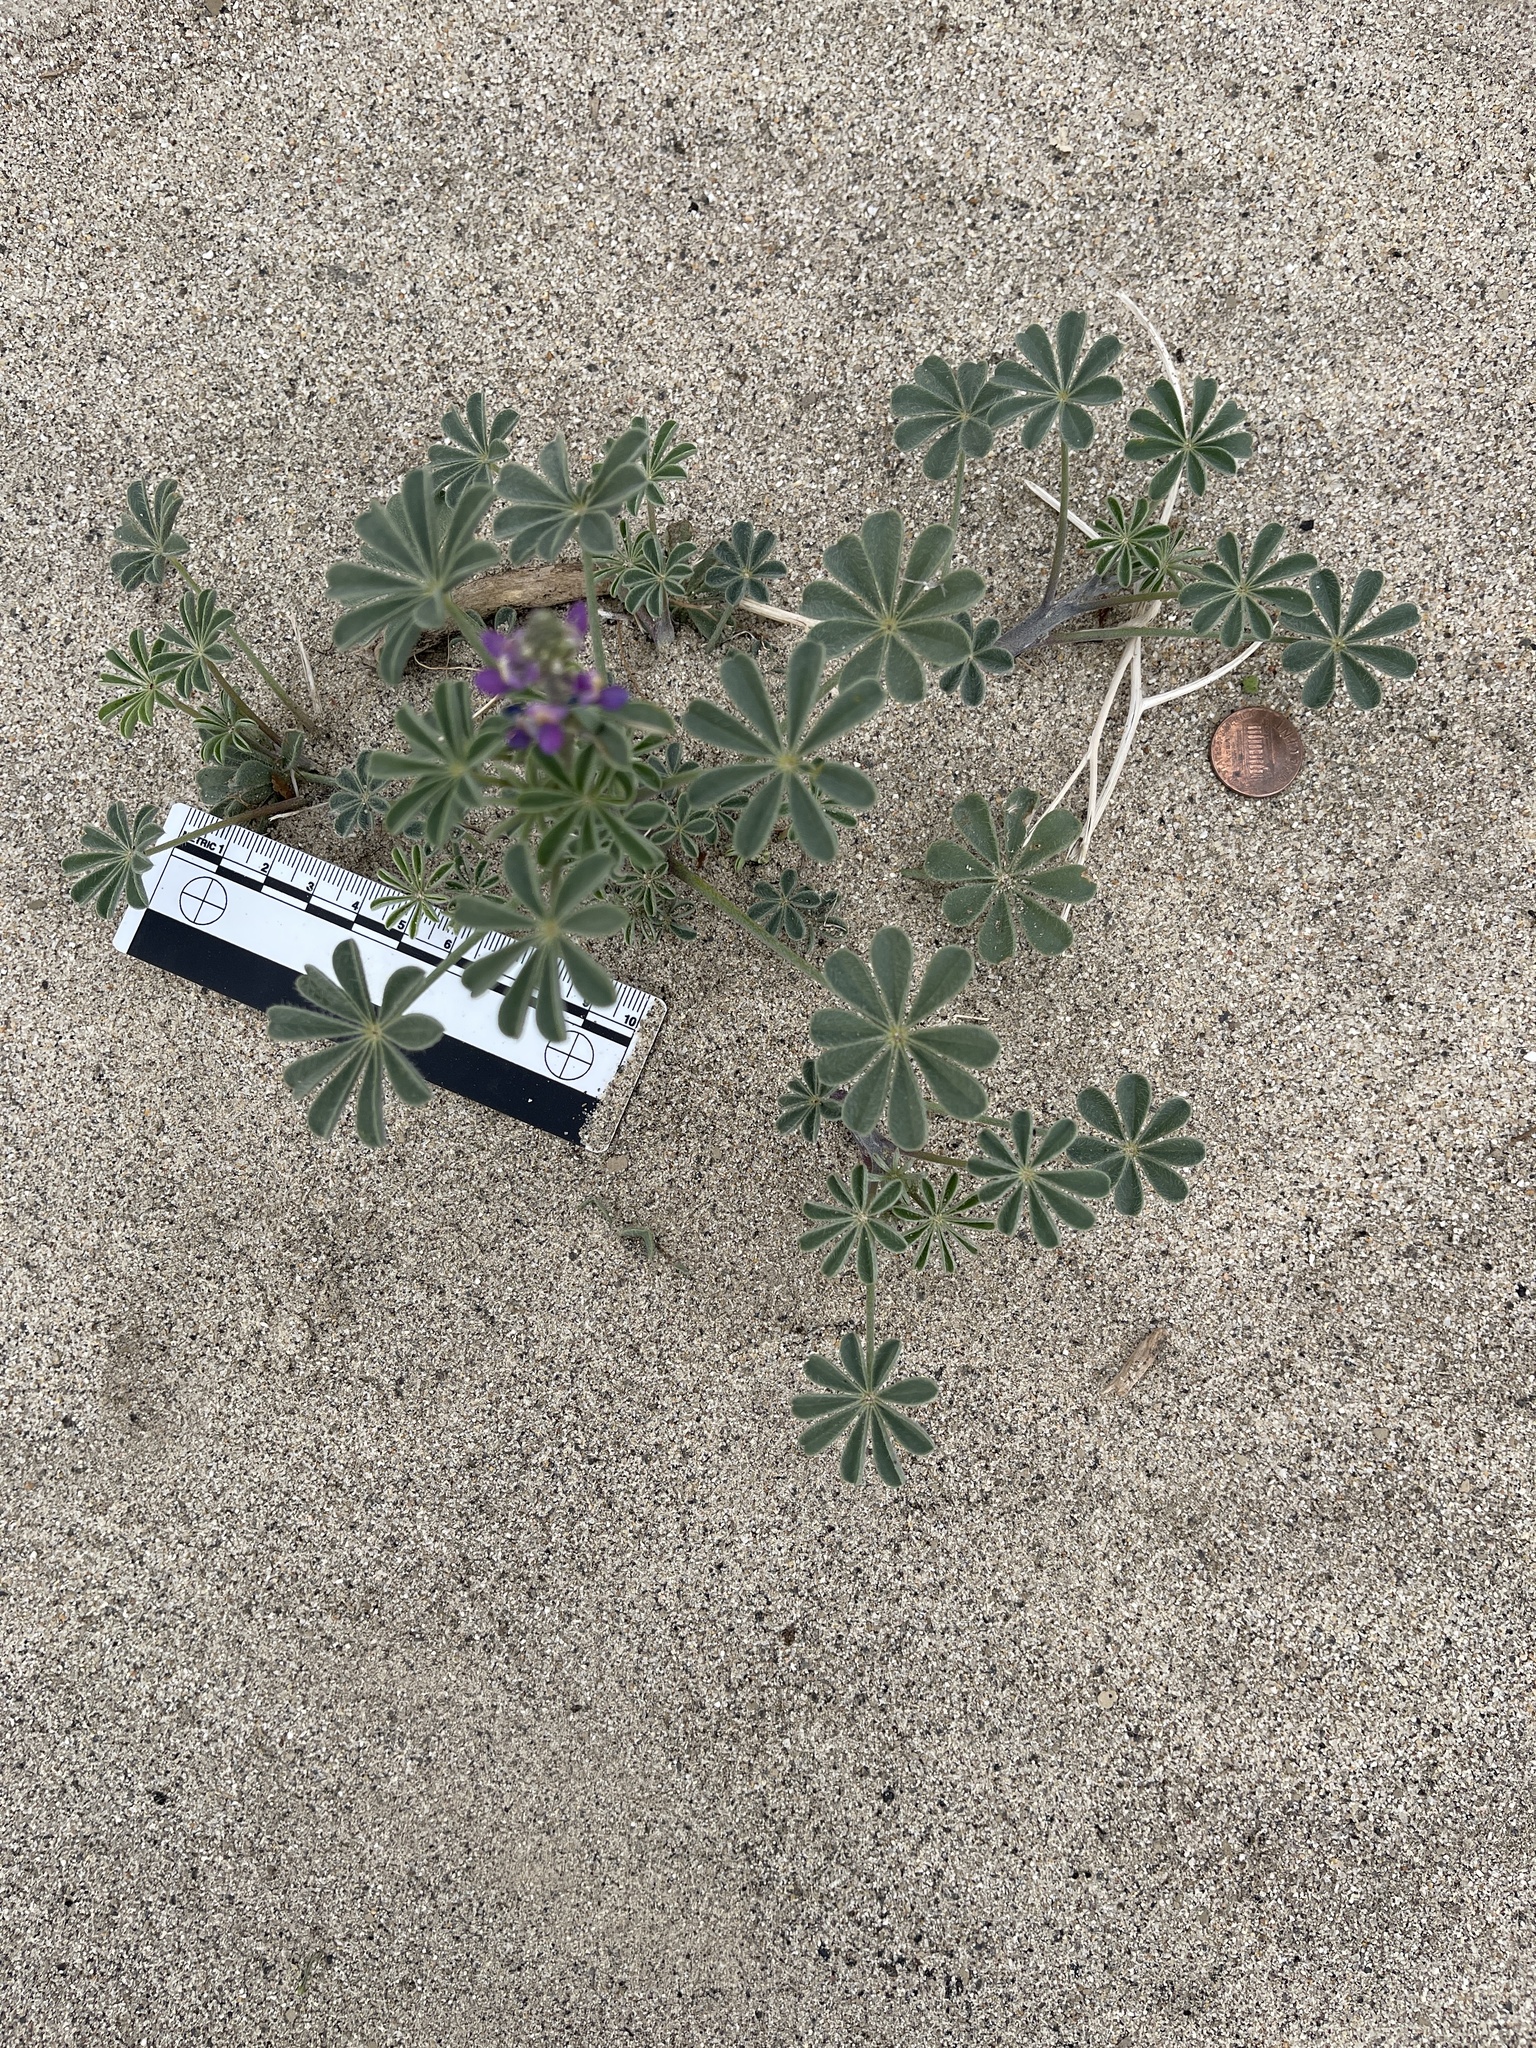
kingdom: Plantae
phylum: Tracheophyta
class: Magnoliopsida
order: Fabales
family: Fabaceae
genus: Lupinus
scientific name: Lupinus arizonicus
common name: Arizona lupine
